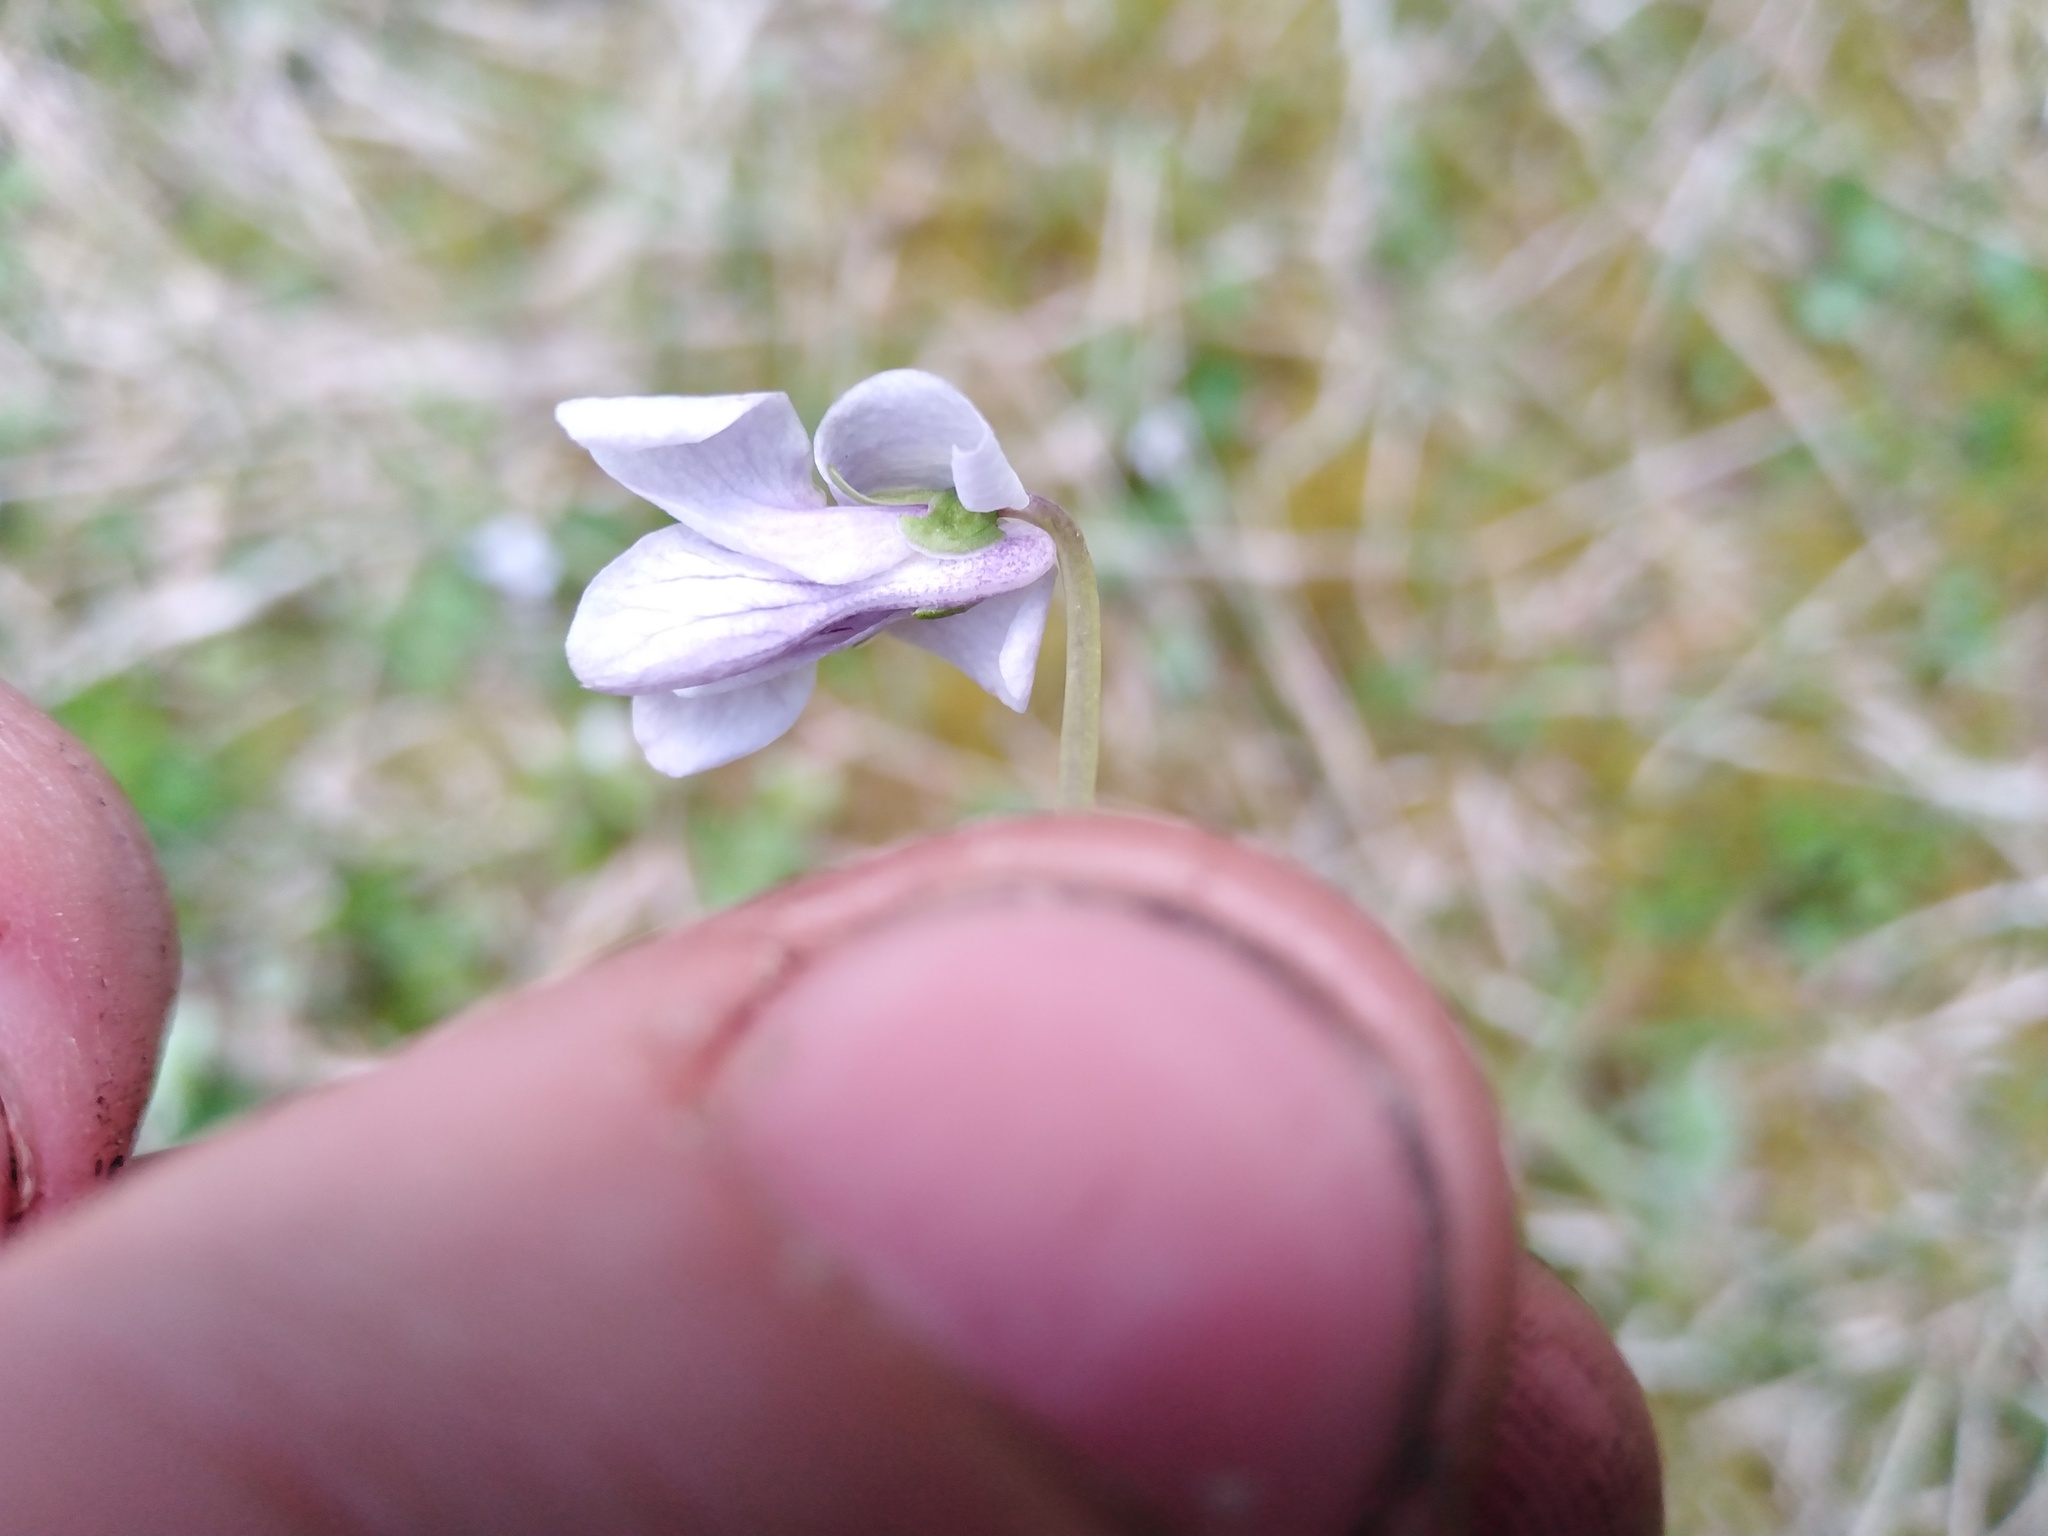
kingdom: Plantae
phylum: Tracheophyta
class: Magnoliopsida
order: Malpighiales
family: Violaceae
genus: Viola
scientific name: Viola palustris
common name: Marsh violet
